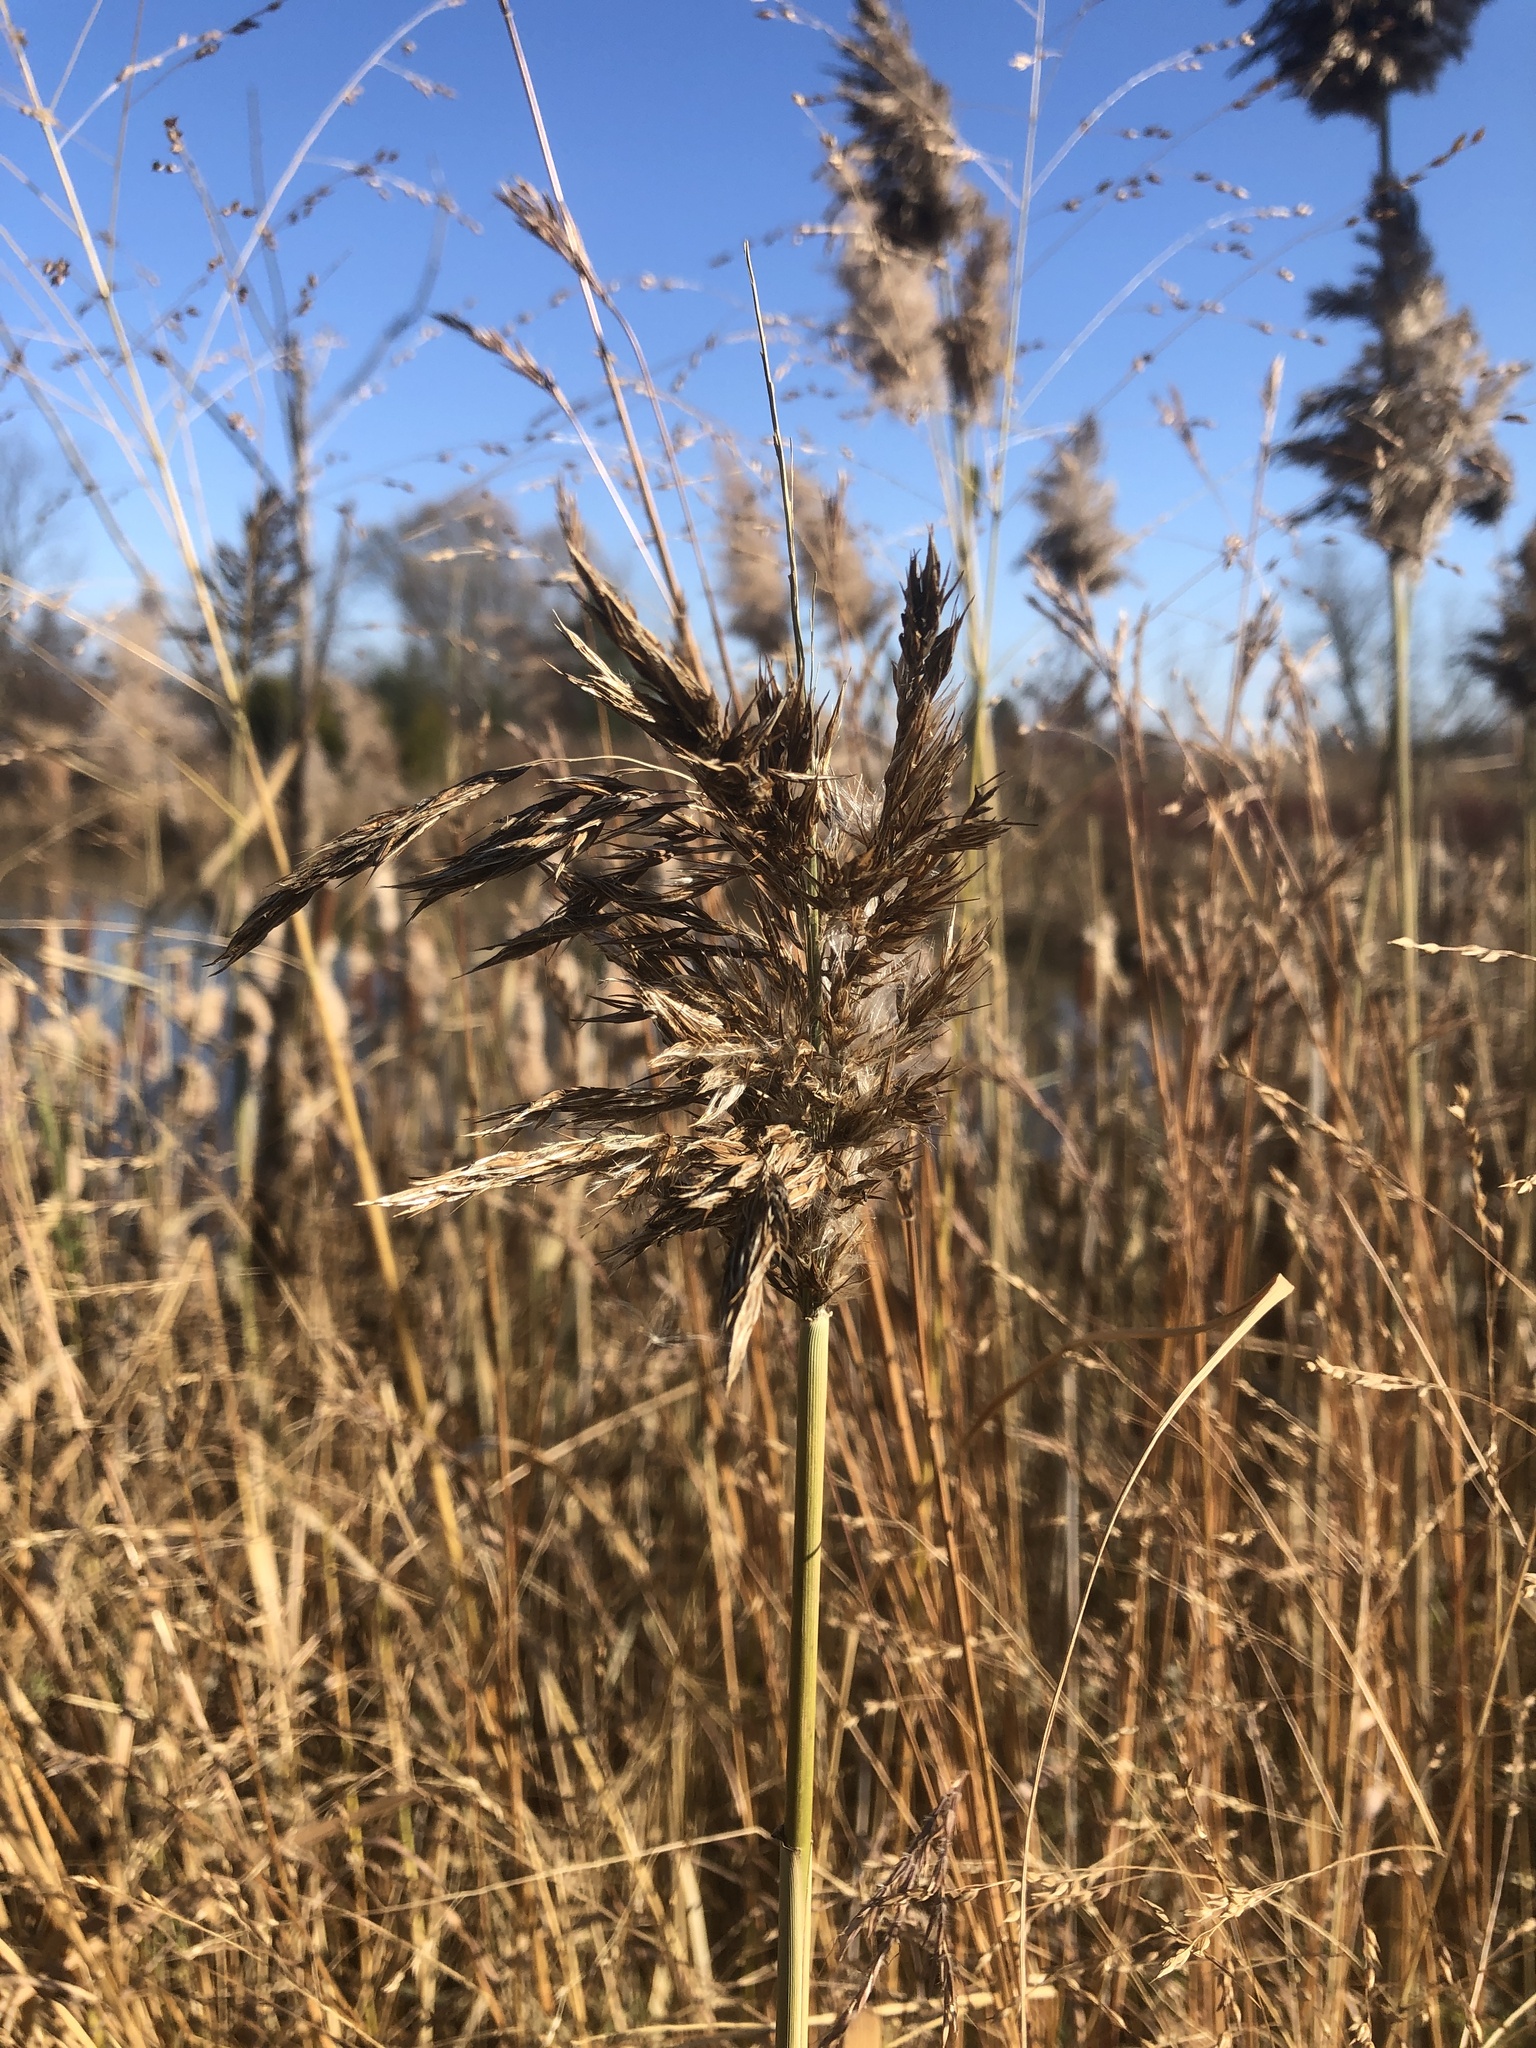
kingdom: Plantae
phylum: Tracheophyta
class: Liliopsida
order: Poales
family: Poaceae
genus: Phragmites
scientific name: Phragmites australis
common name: Common reed
